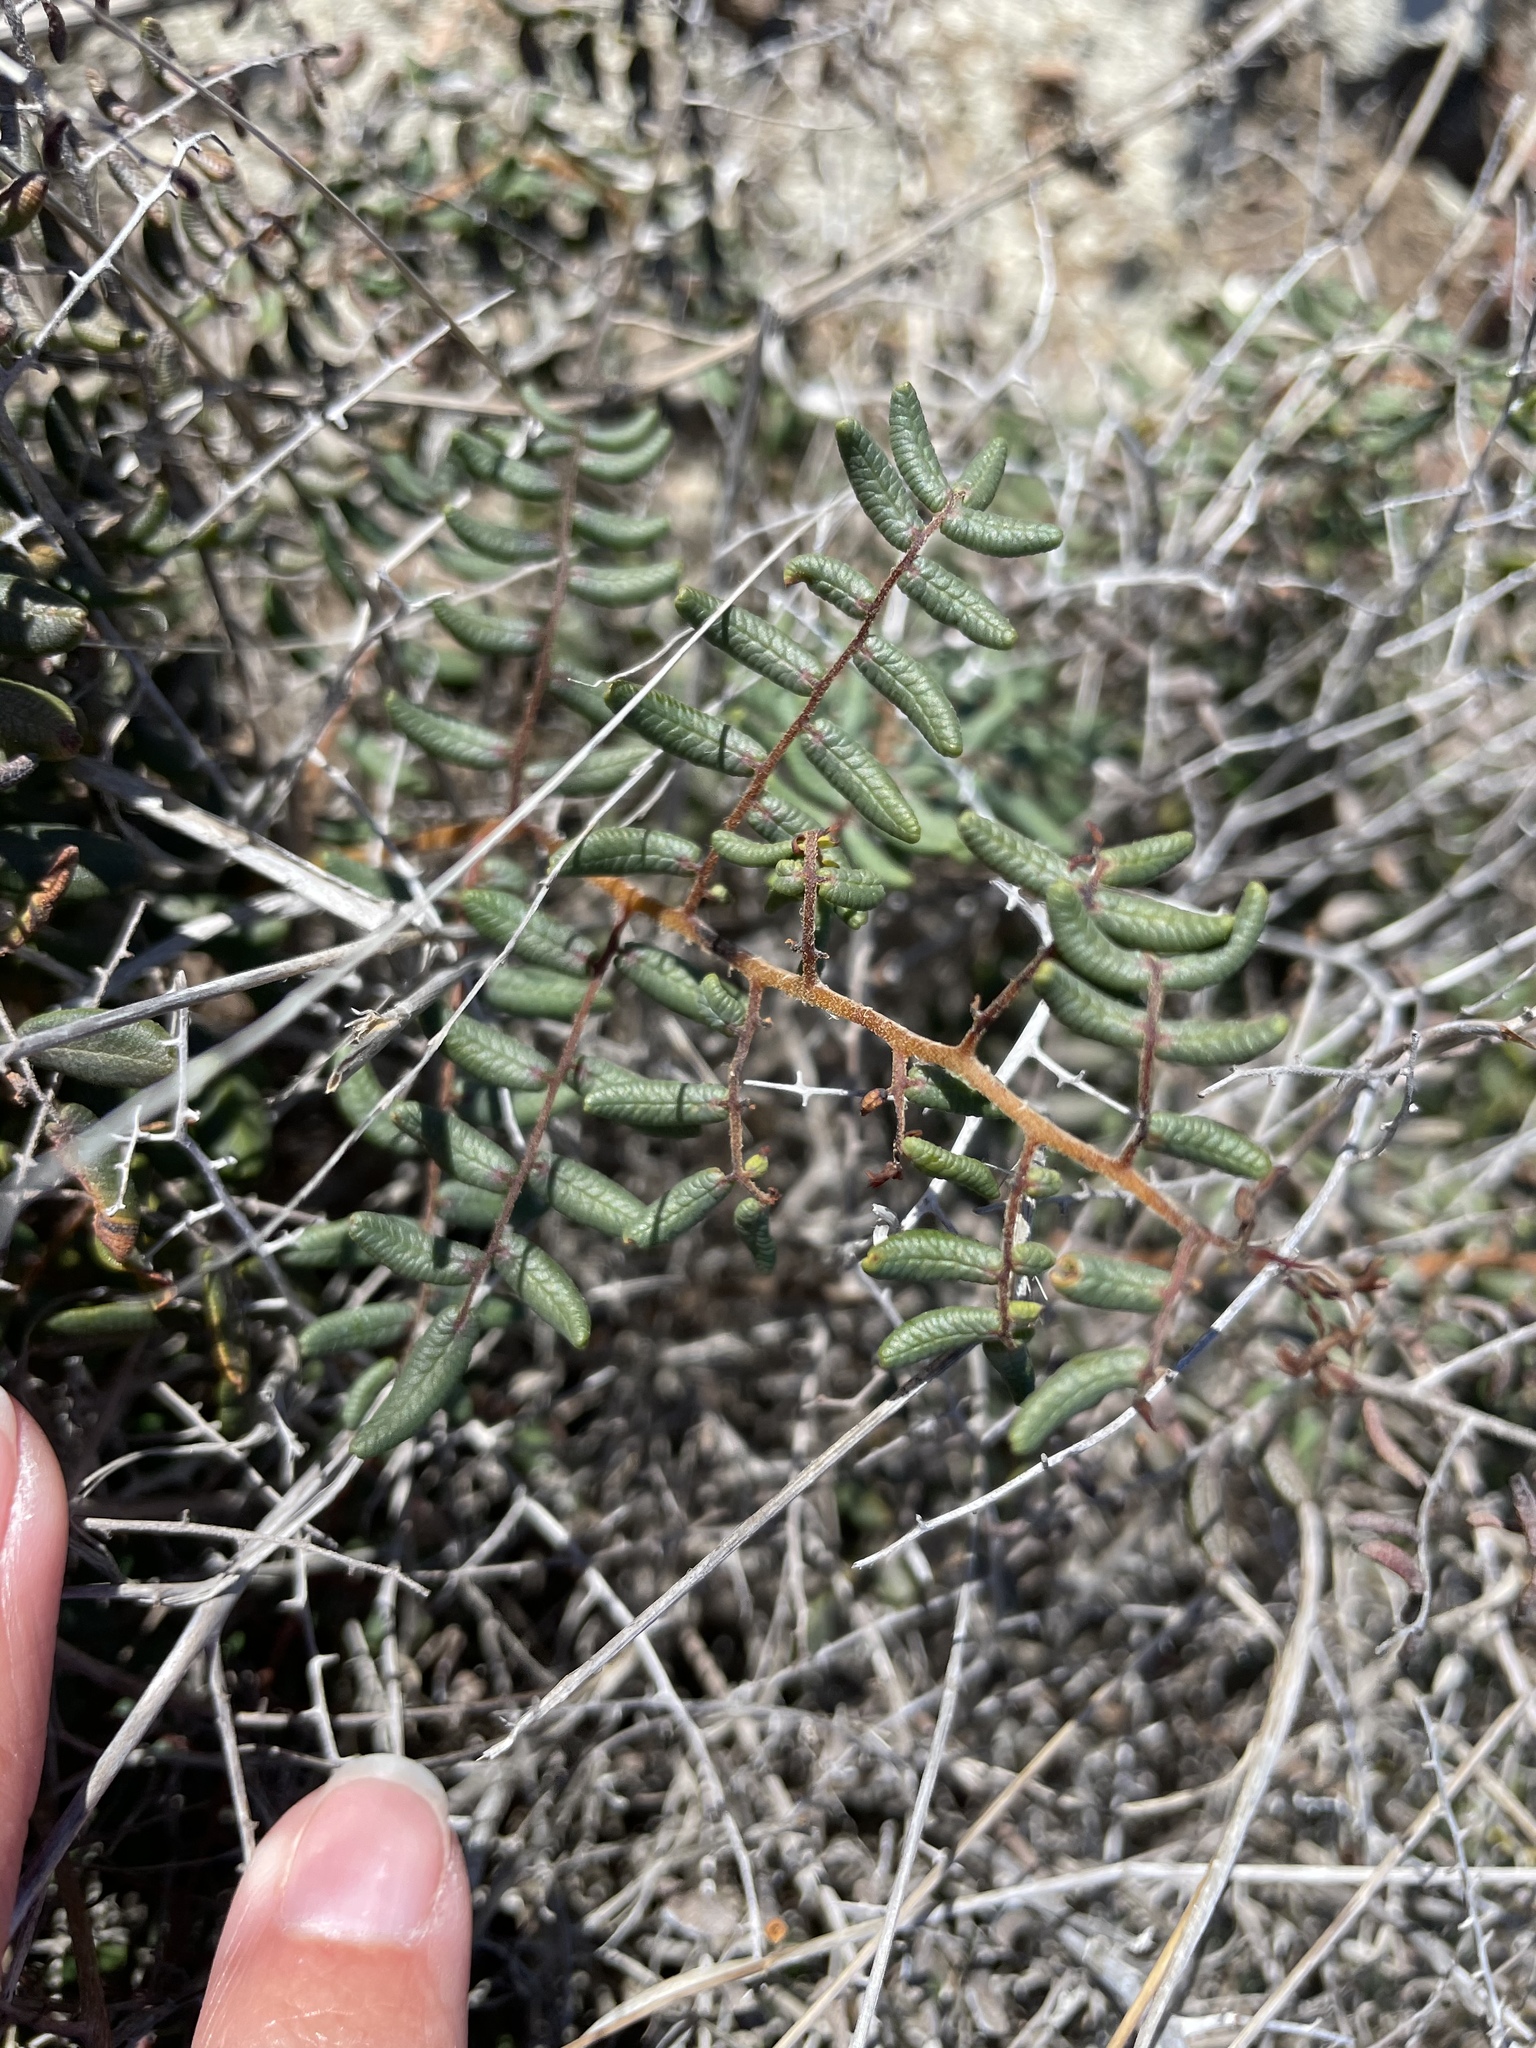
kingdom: Plantae
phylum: Tracheophyta
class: Polypodiopsida
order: Polypodiales
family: Pteridaceae
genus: Pellaea
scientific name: Pellaea andromedifolia
